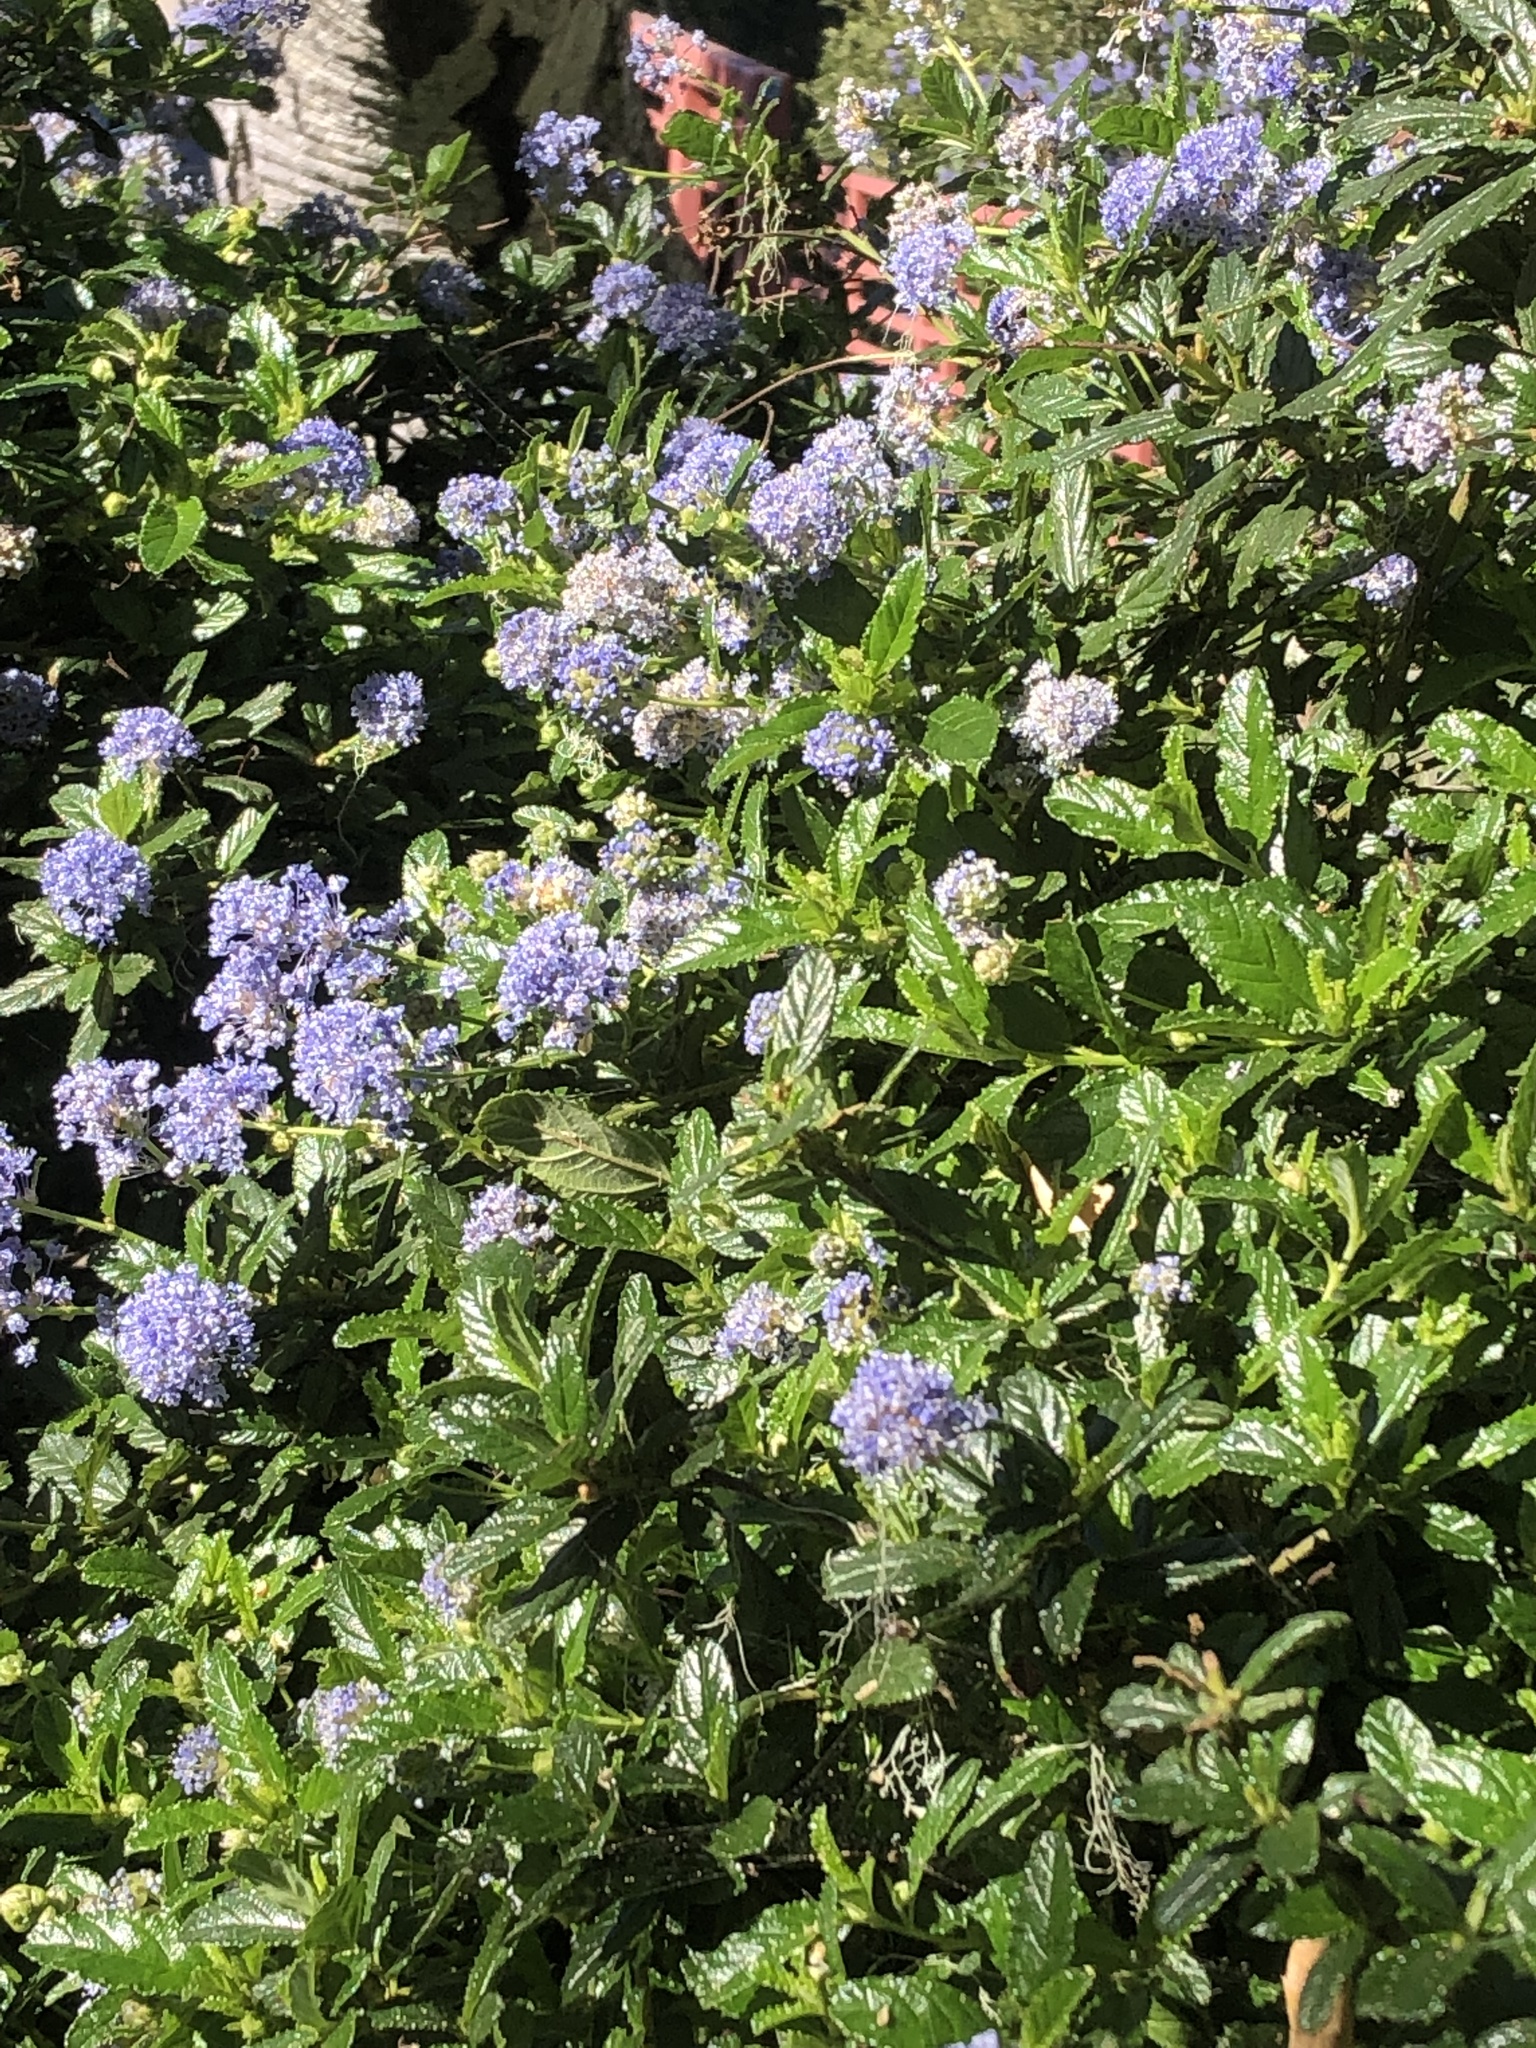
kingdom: Plantae
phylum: Tracheophyta
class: Magnoliopsida
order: Rosales
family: Rhamnaceae
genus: Ceanothus
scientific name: Ceanothus thyrsiflorus
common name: California-lilac
